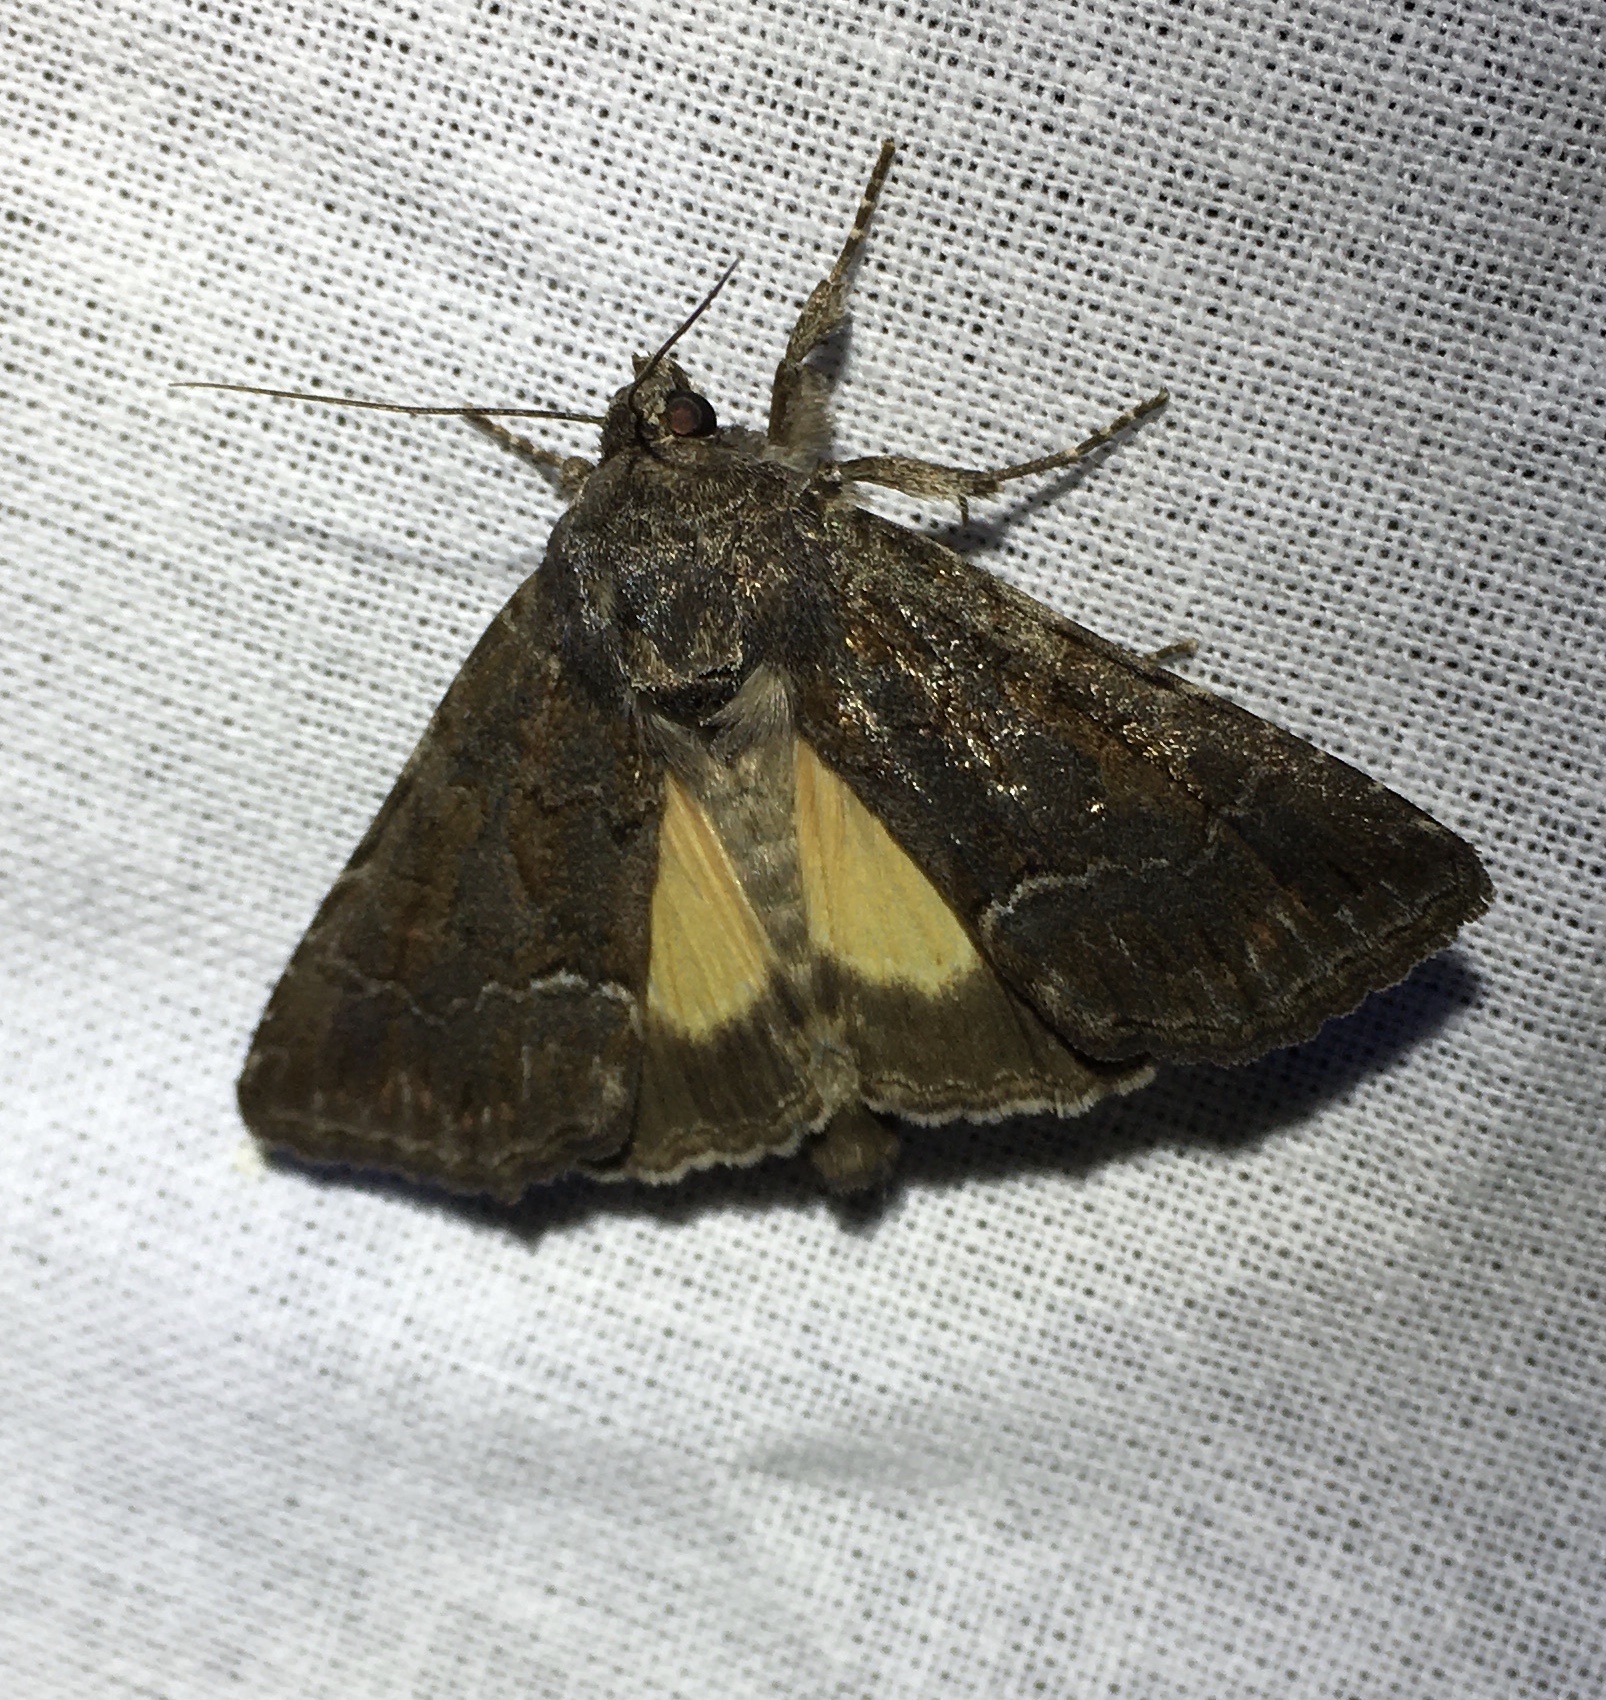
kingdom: Animalia
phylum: Arthropoda
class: Insecta
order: Lepidoptera
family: Noctuidae
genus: Thalpophila
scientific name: Thalpophila matura
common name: Straw underwing
